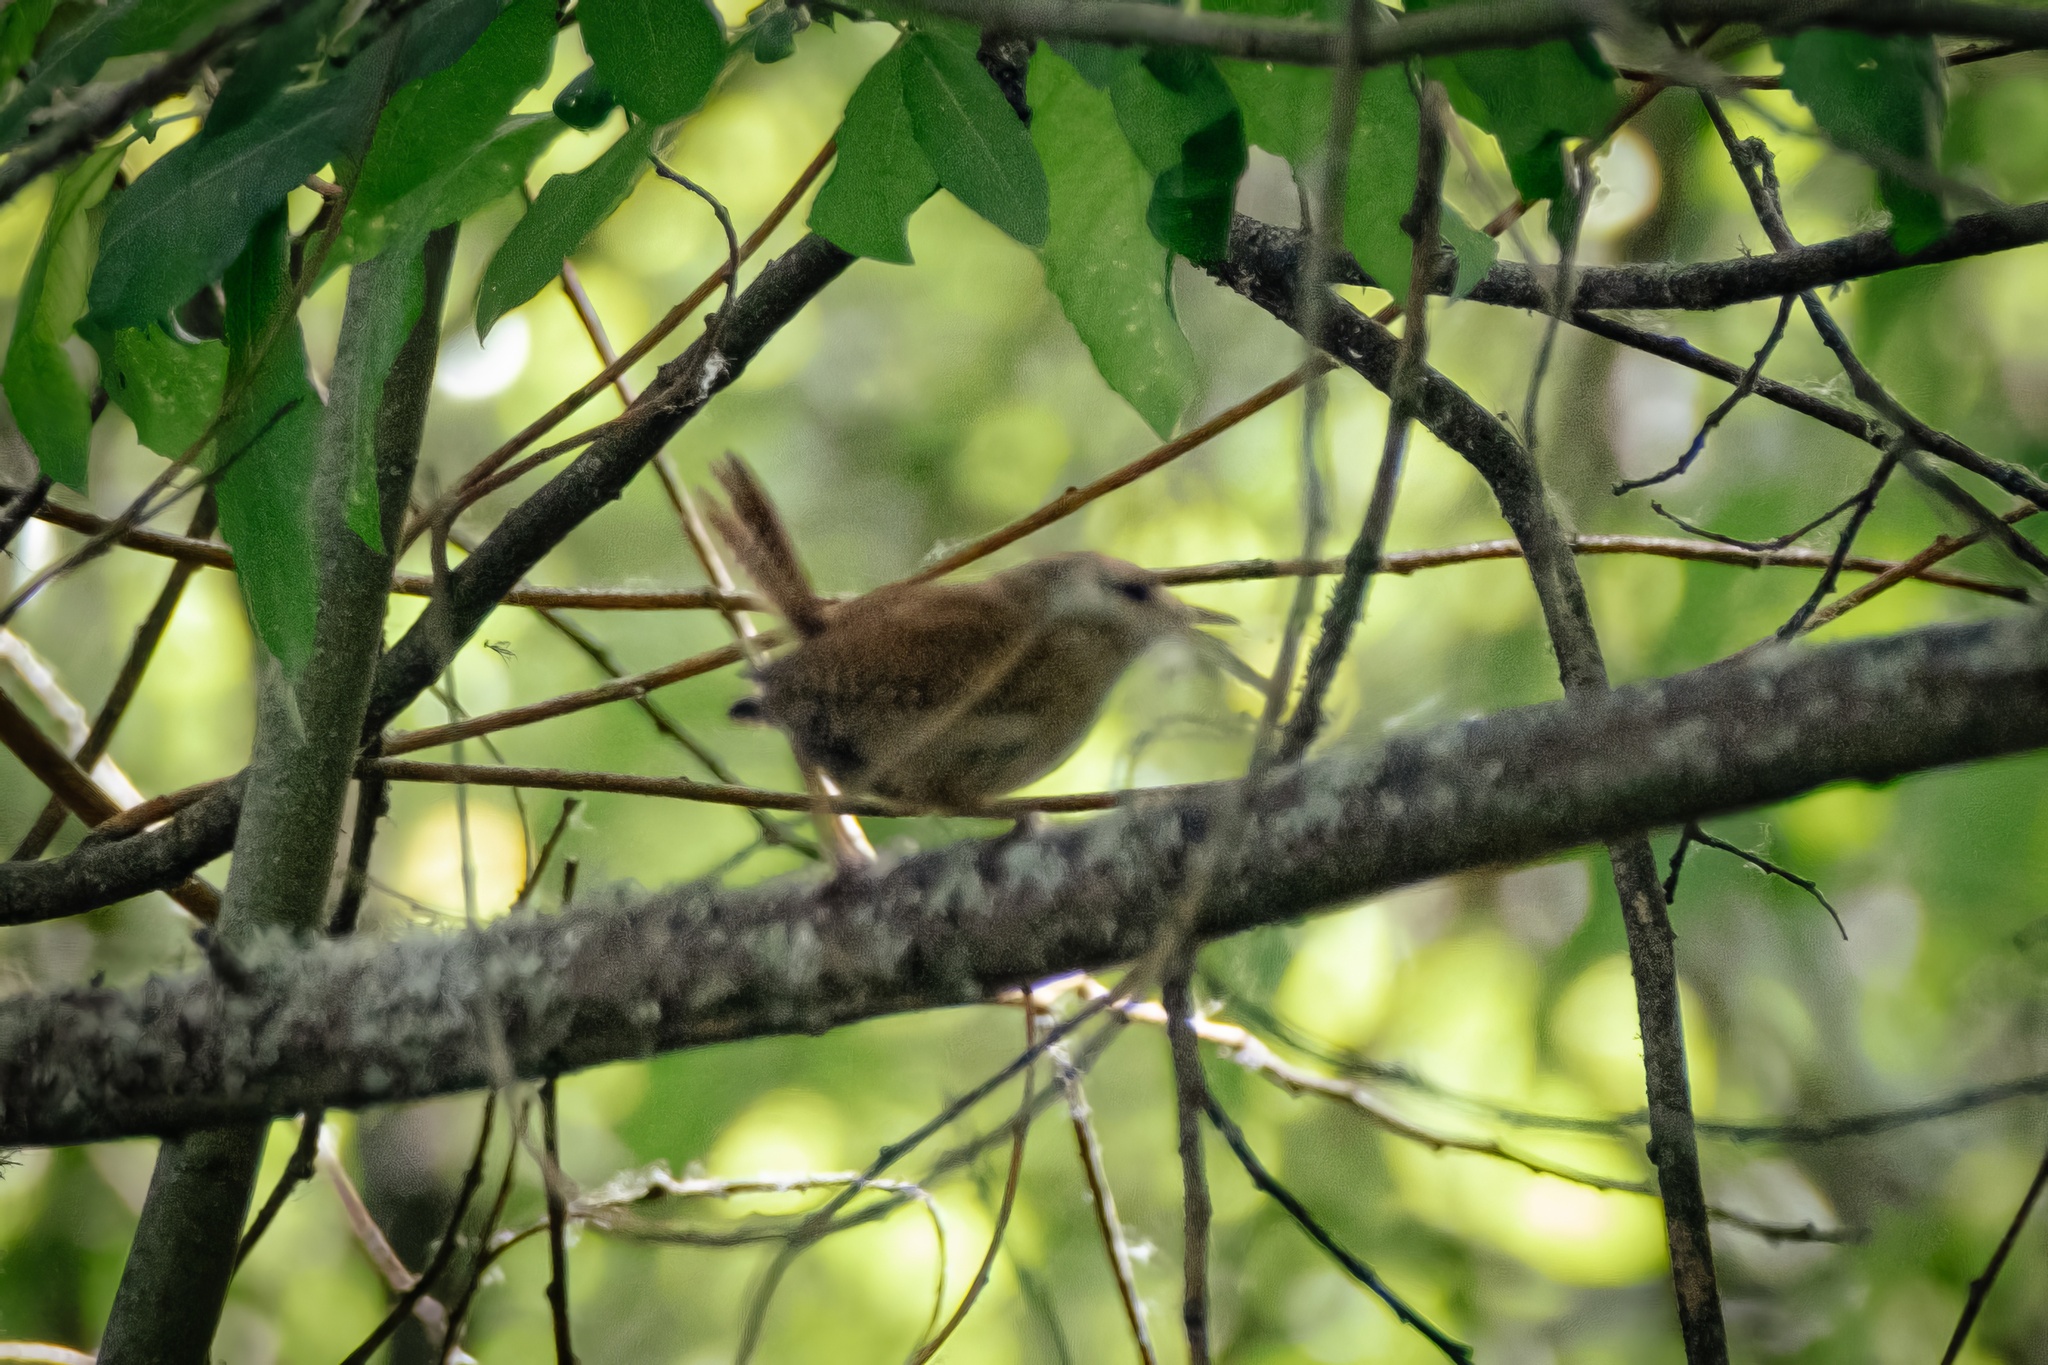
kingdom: Animalia
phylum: Chordata
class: Aves
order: Passeriformes
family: Troglodytidae
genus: Troglodytes
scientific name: Troglodytes troglodytes
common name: Eurasian wren
